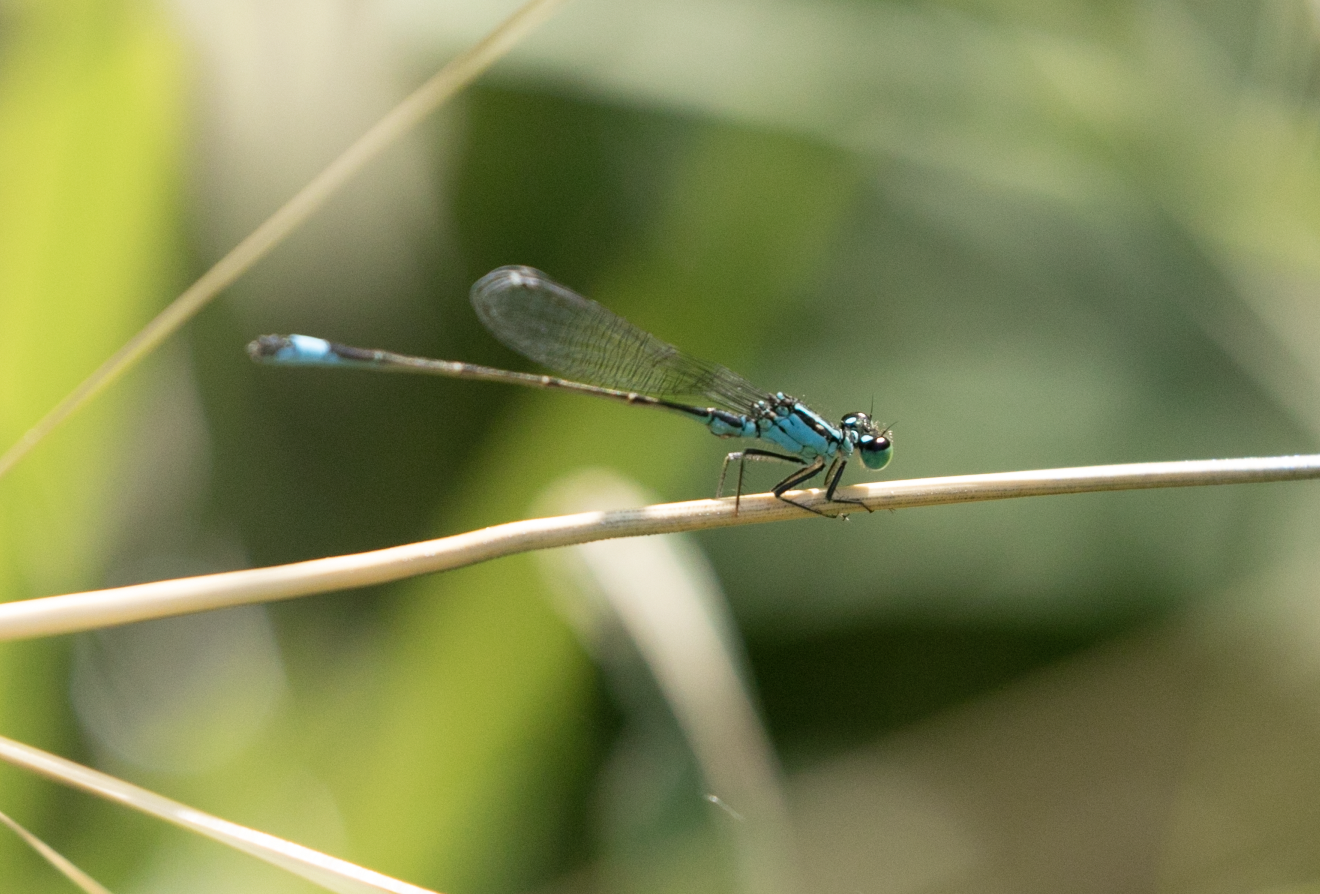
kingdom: Animalia
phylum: Arthropoda
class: Insecta
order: Odonata
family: Coenagrionidae
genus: Ischnura
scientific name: Ischnura elegans
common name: Blue-tailed damselfly
